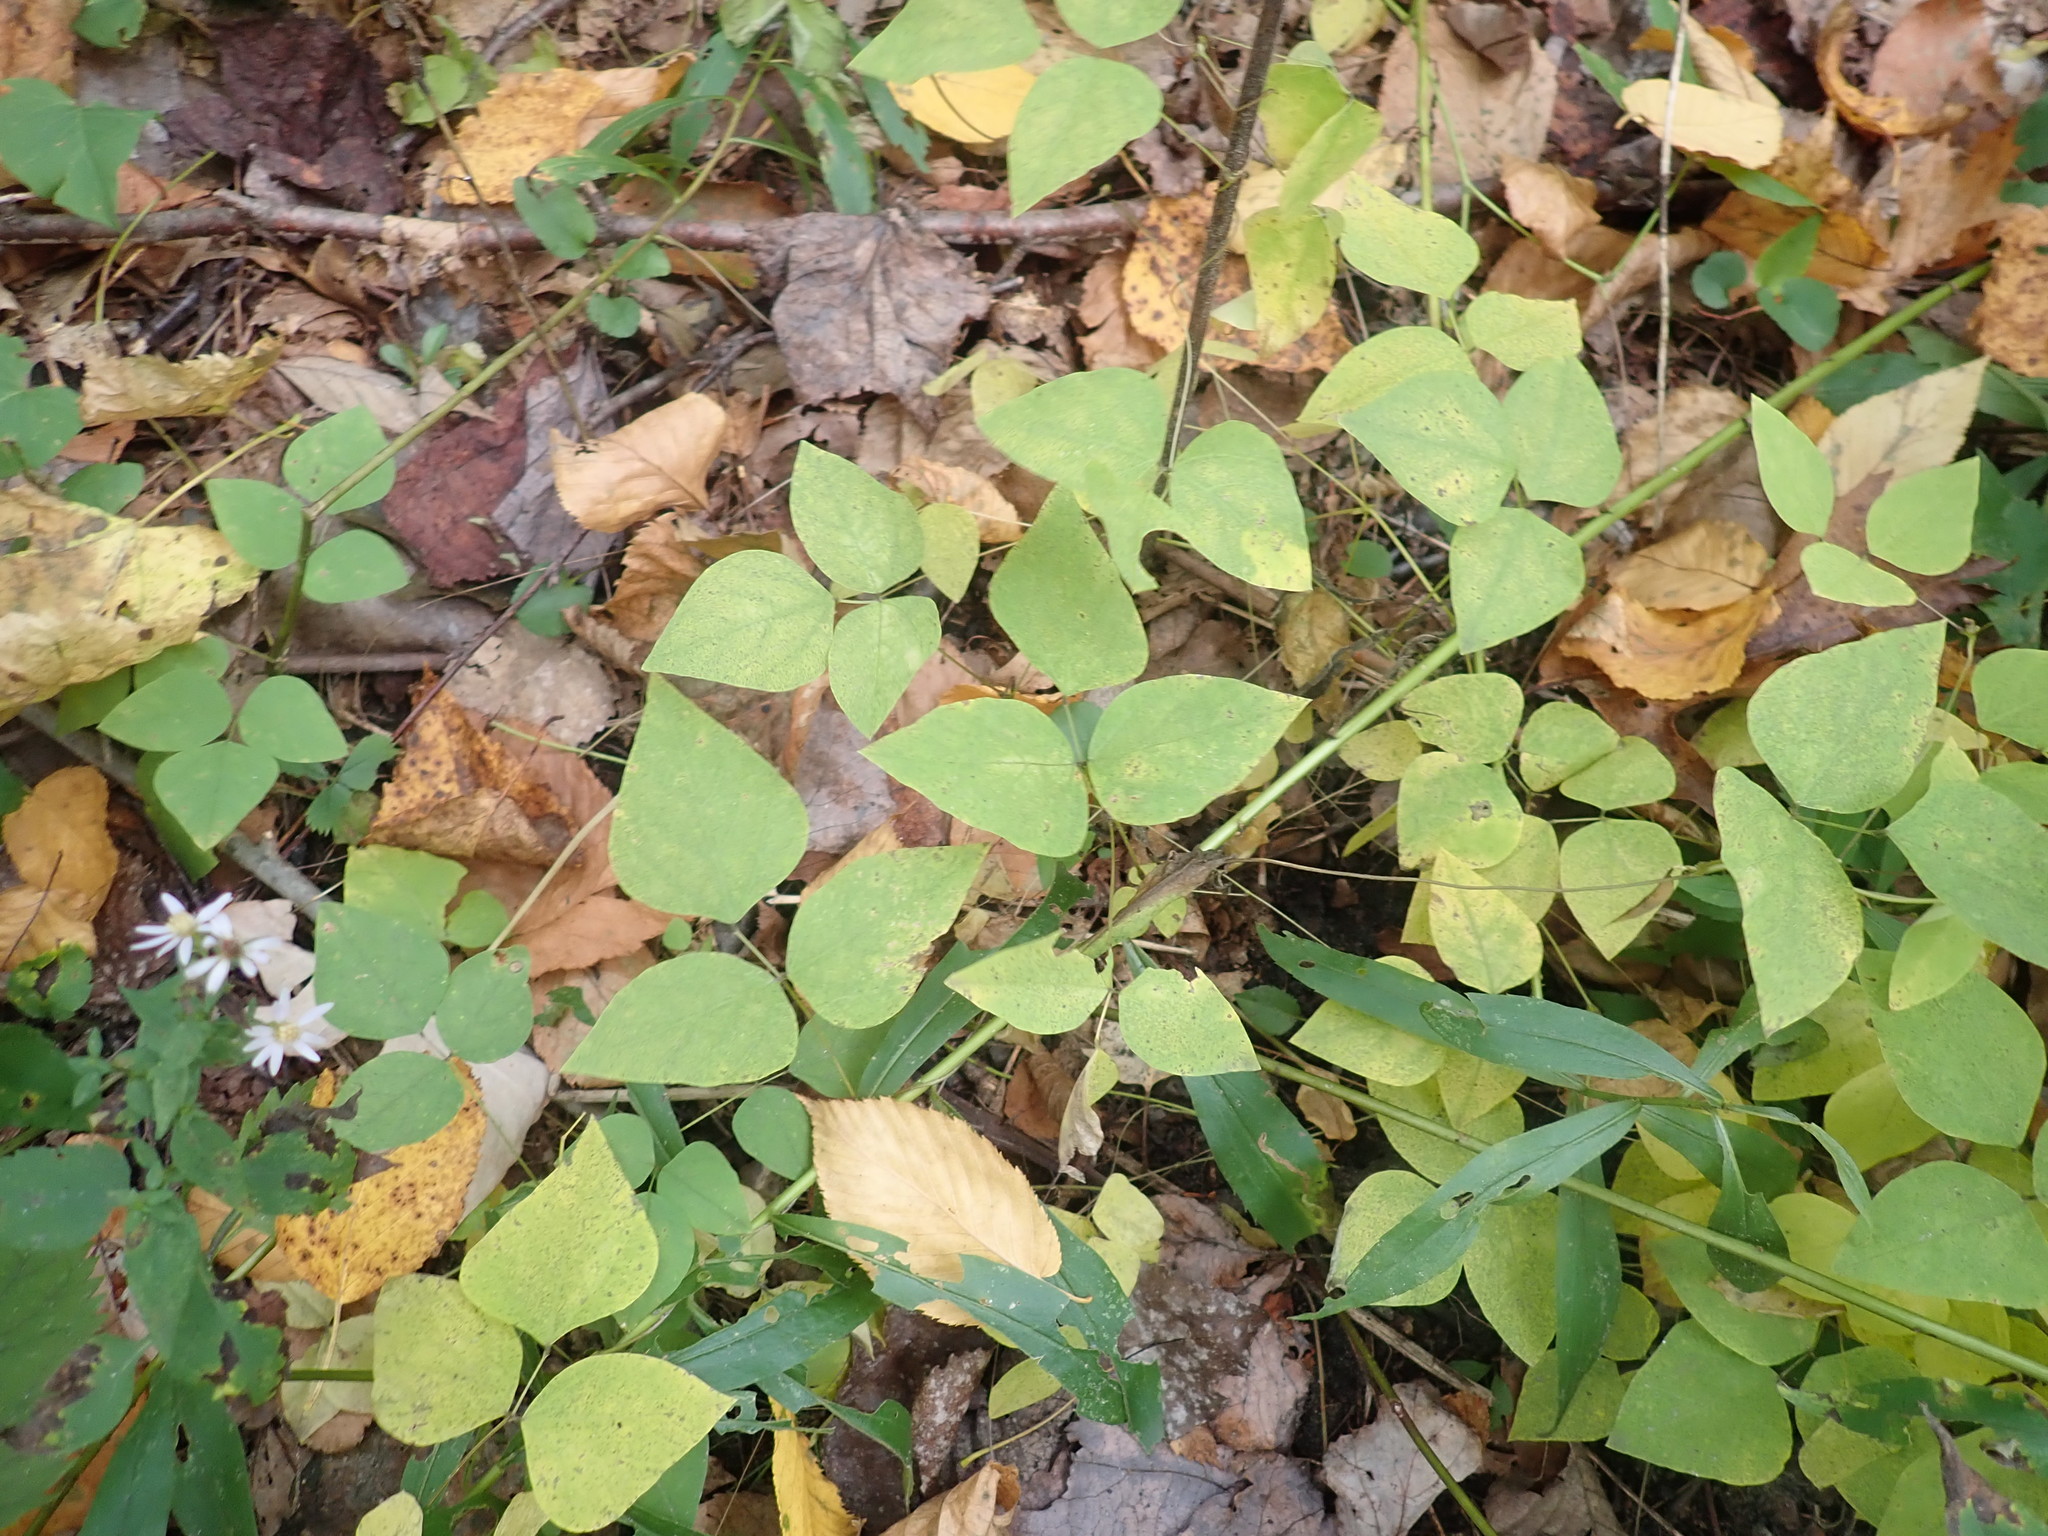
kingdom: Plantae
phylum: Tracheophyta
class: Magnoliopsida
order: Fabales
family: Fabaceae
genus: Amphicarpaea
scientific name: Amphicarpaea bracteata
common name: American hog peanut
